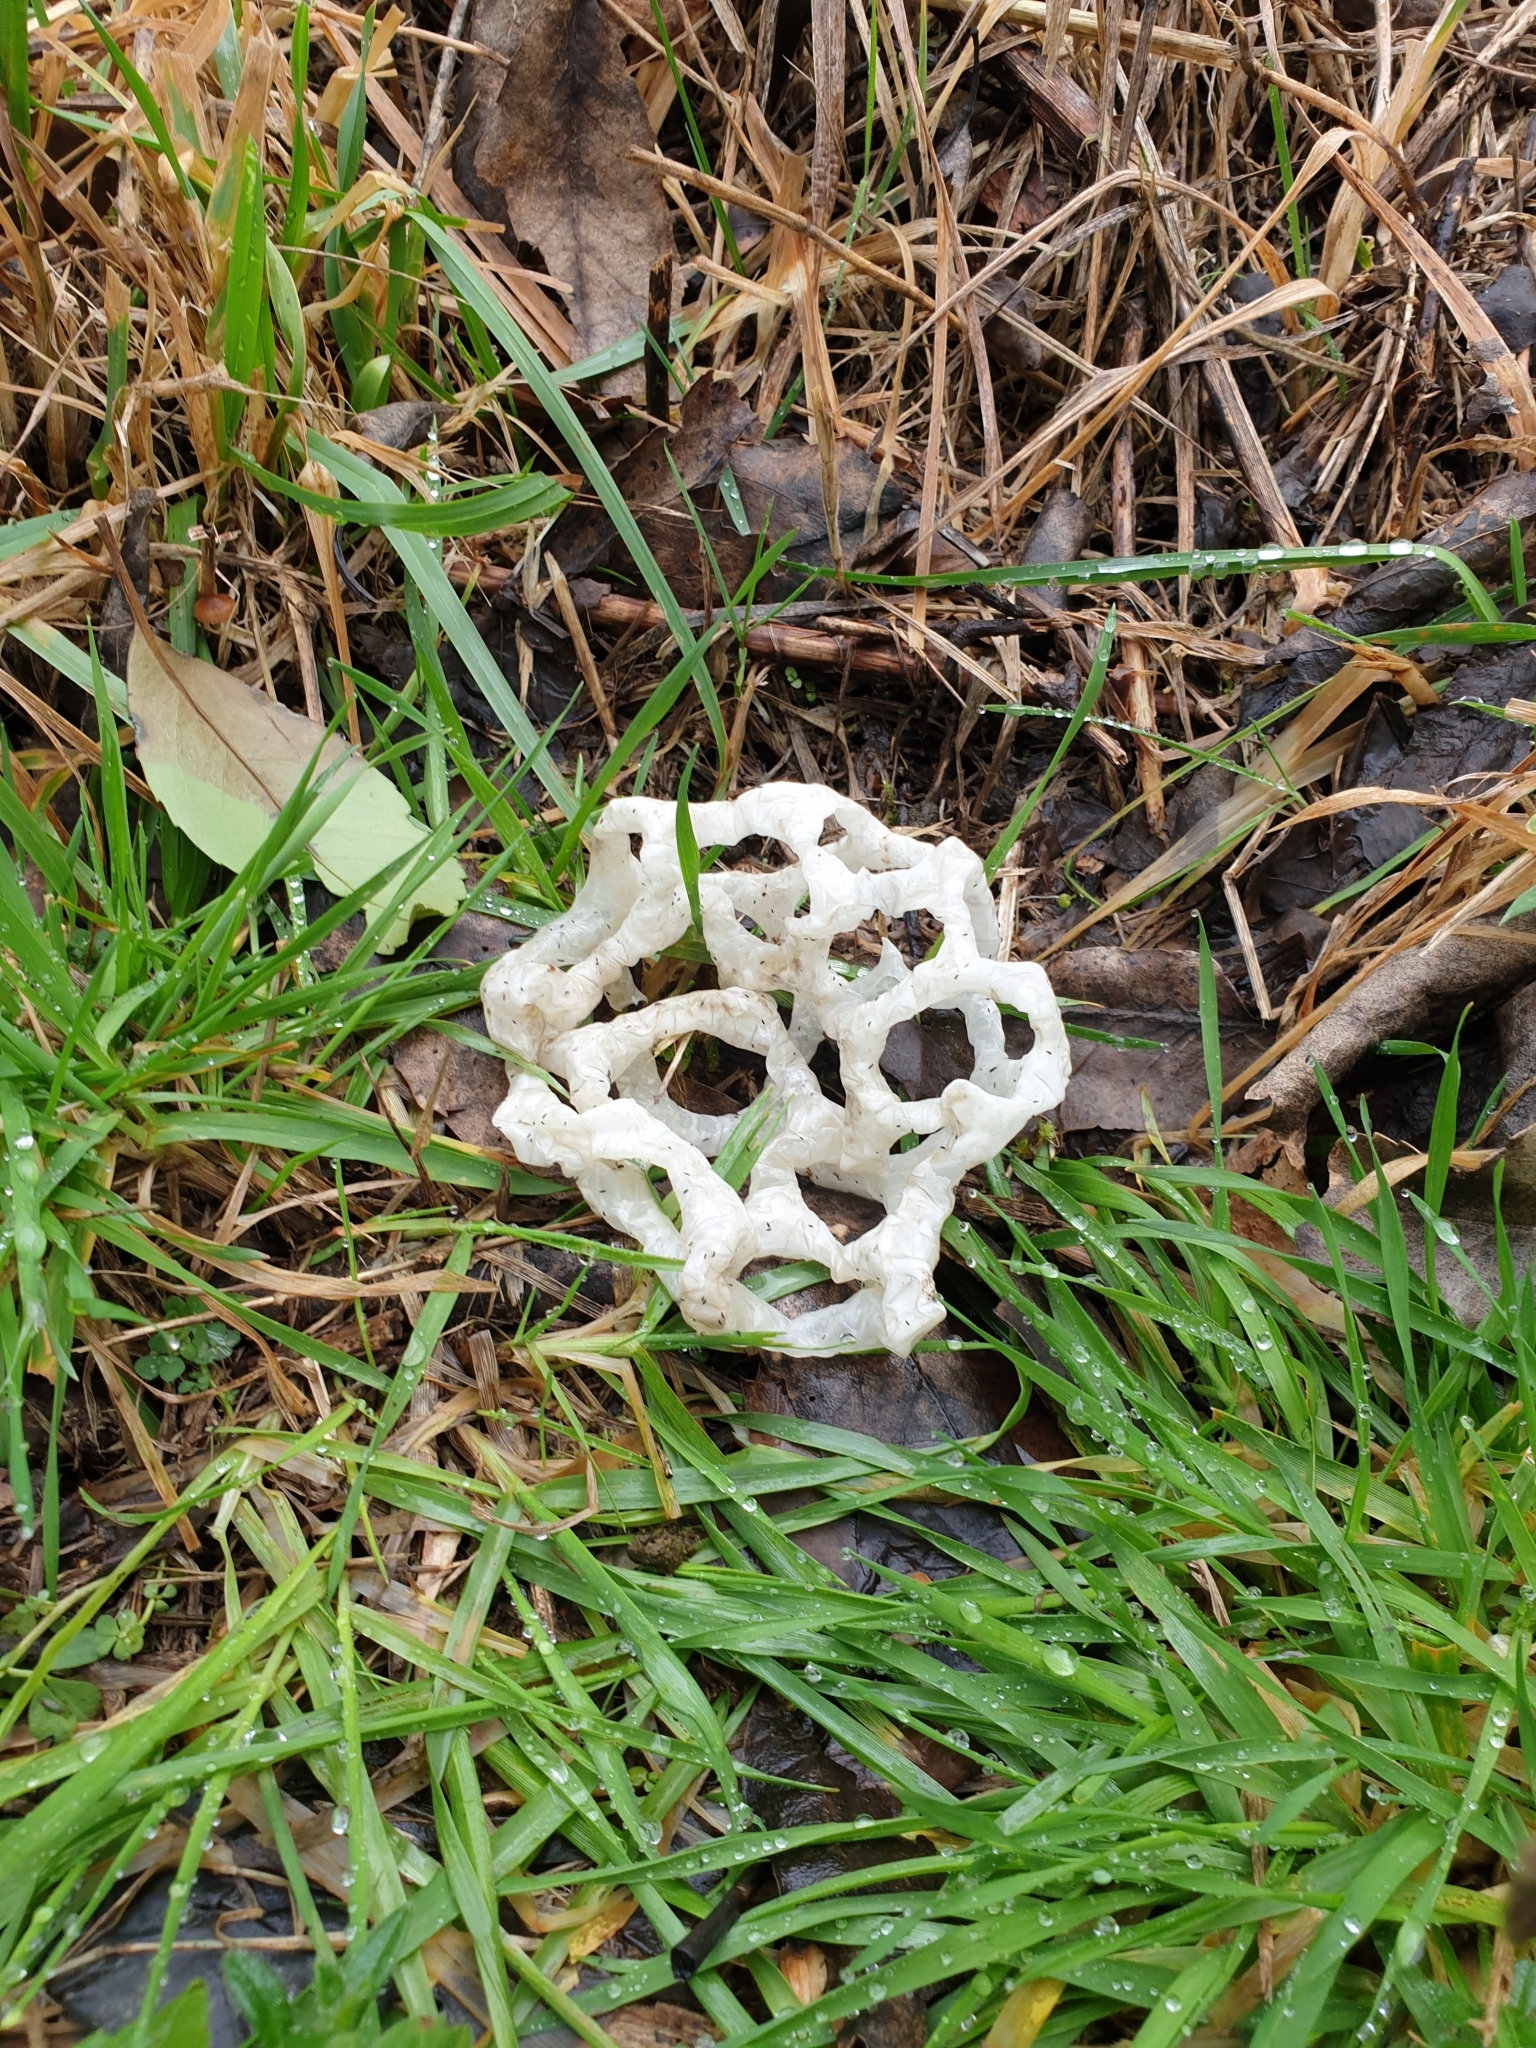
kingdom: Fungi
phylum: Basidiomycota
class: Agaricomycetes
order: Phallales
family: Phallaceae
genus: Ileodictyon
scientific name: Ileodictyon cibarium
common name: Basket fungus
